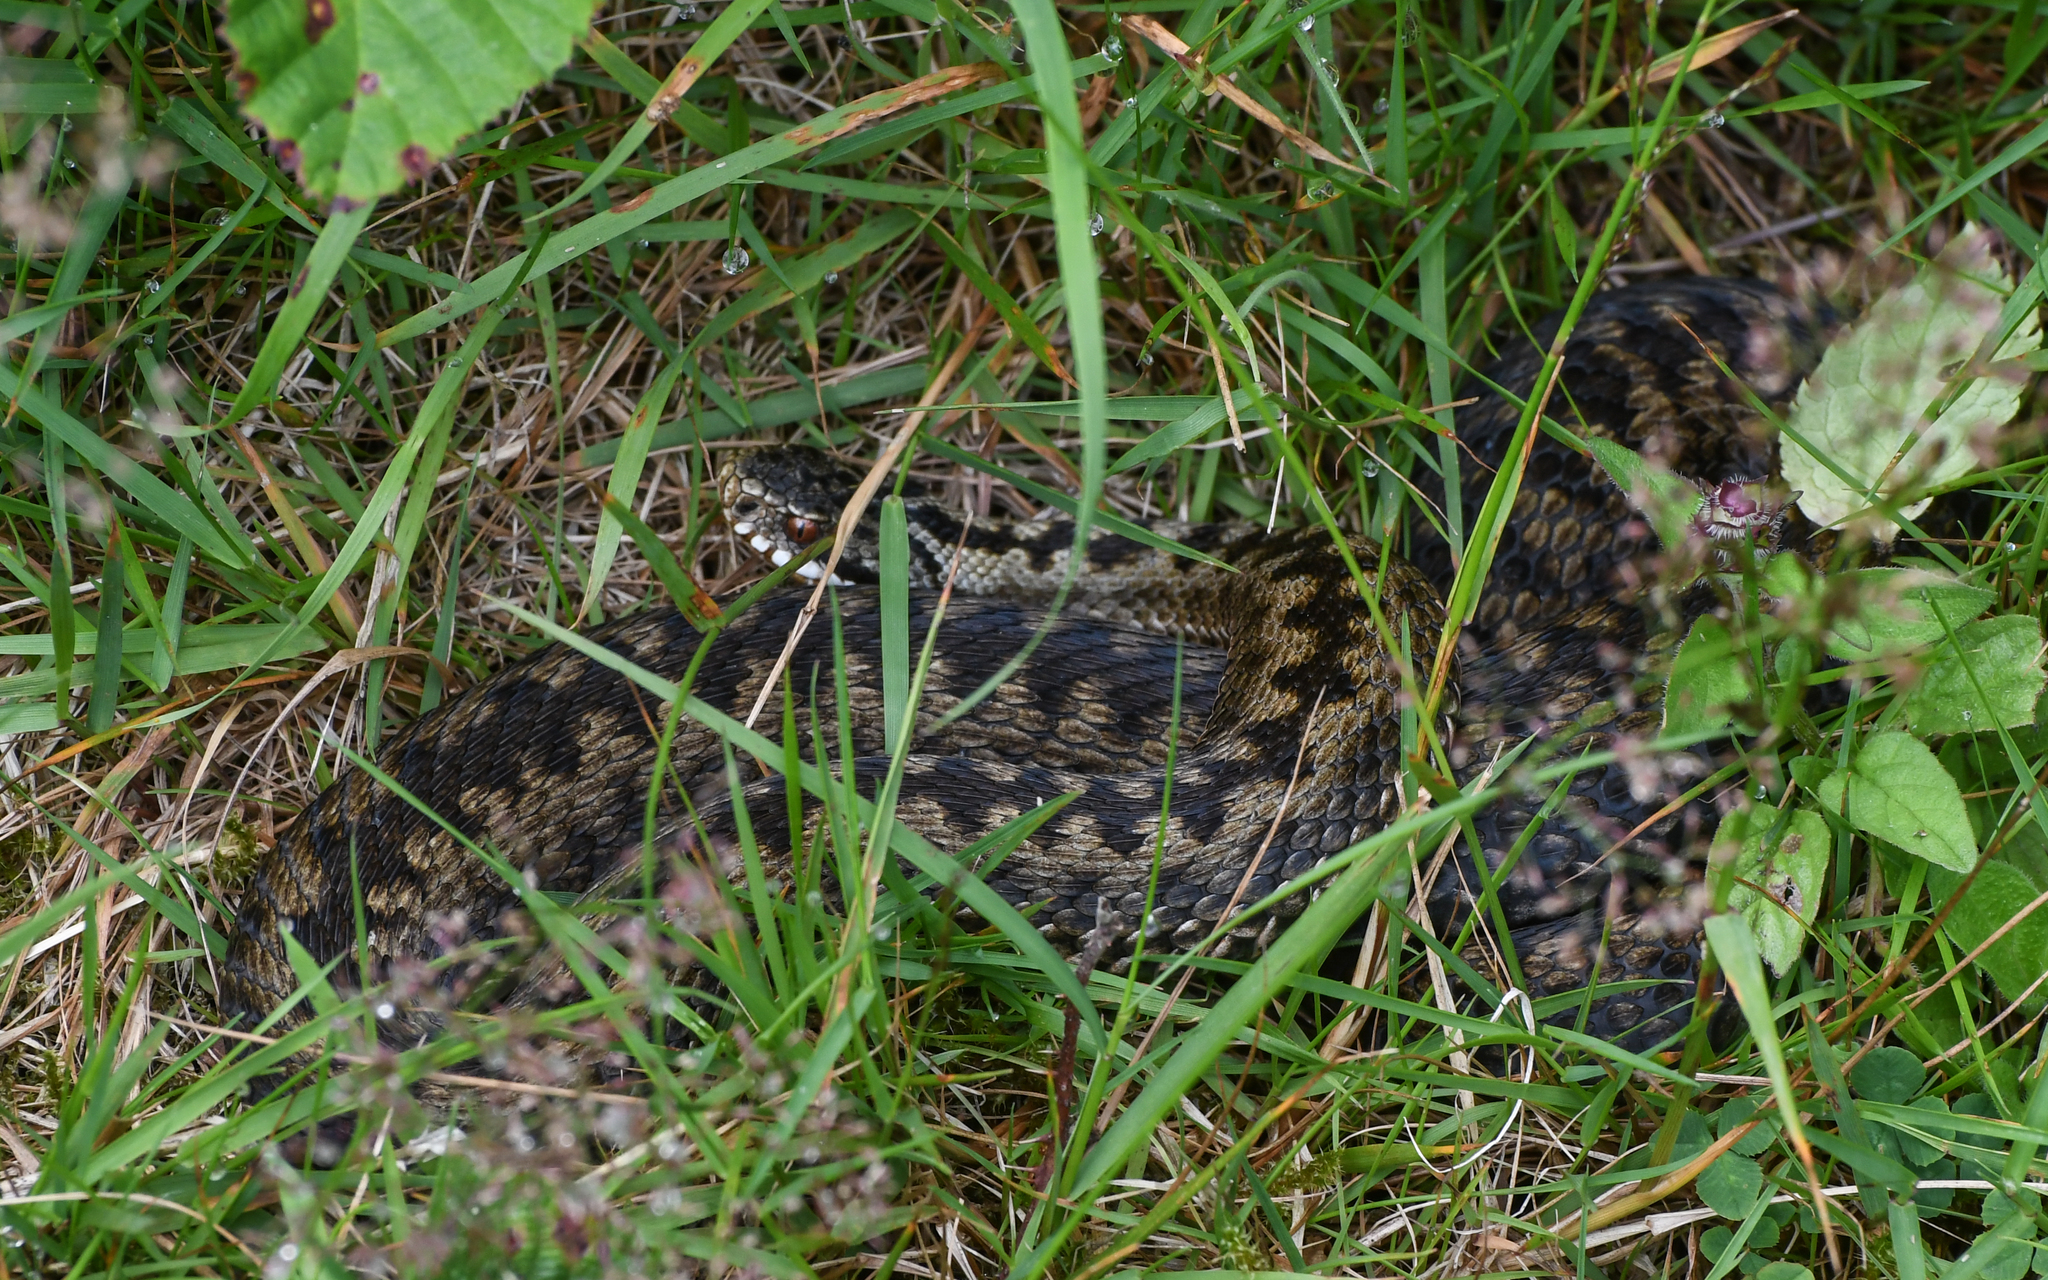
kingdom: Animalia
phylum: Chordata
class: Squamata
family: Viperidae
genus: Vipera
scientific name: Vipera berus
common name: Adder
